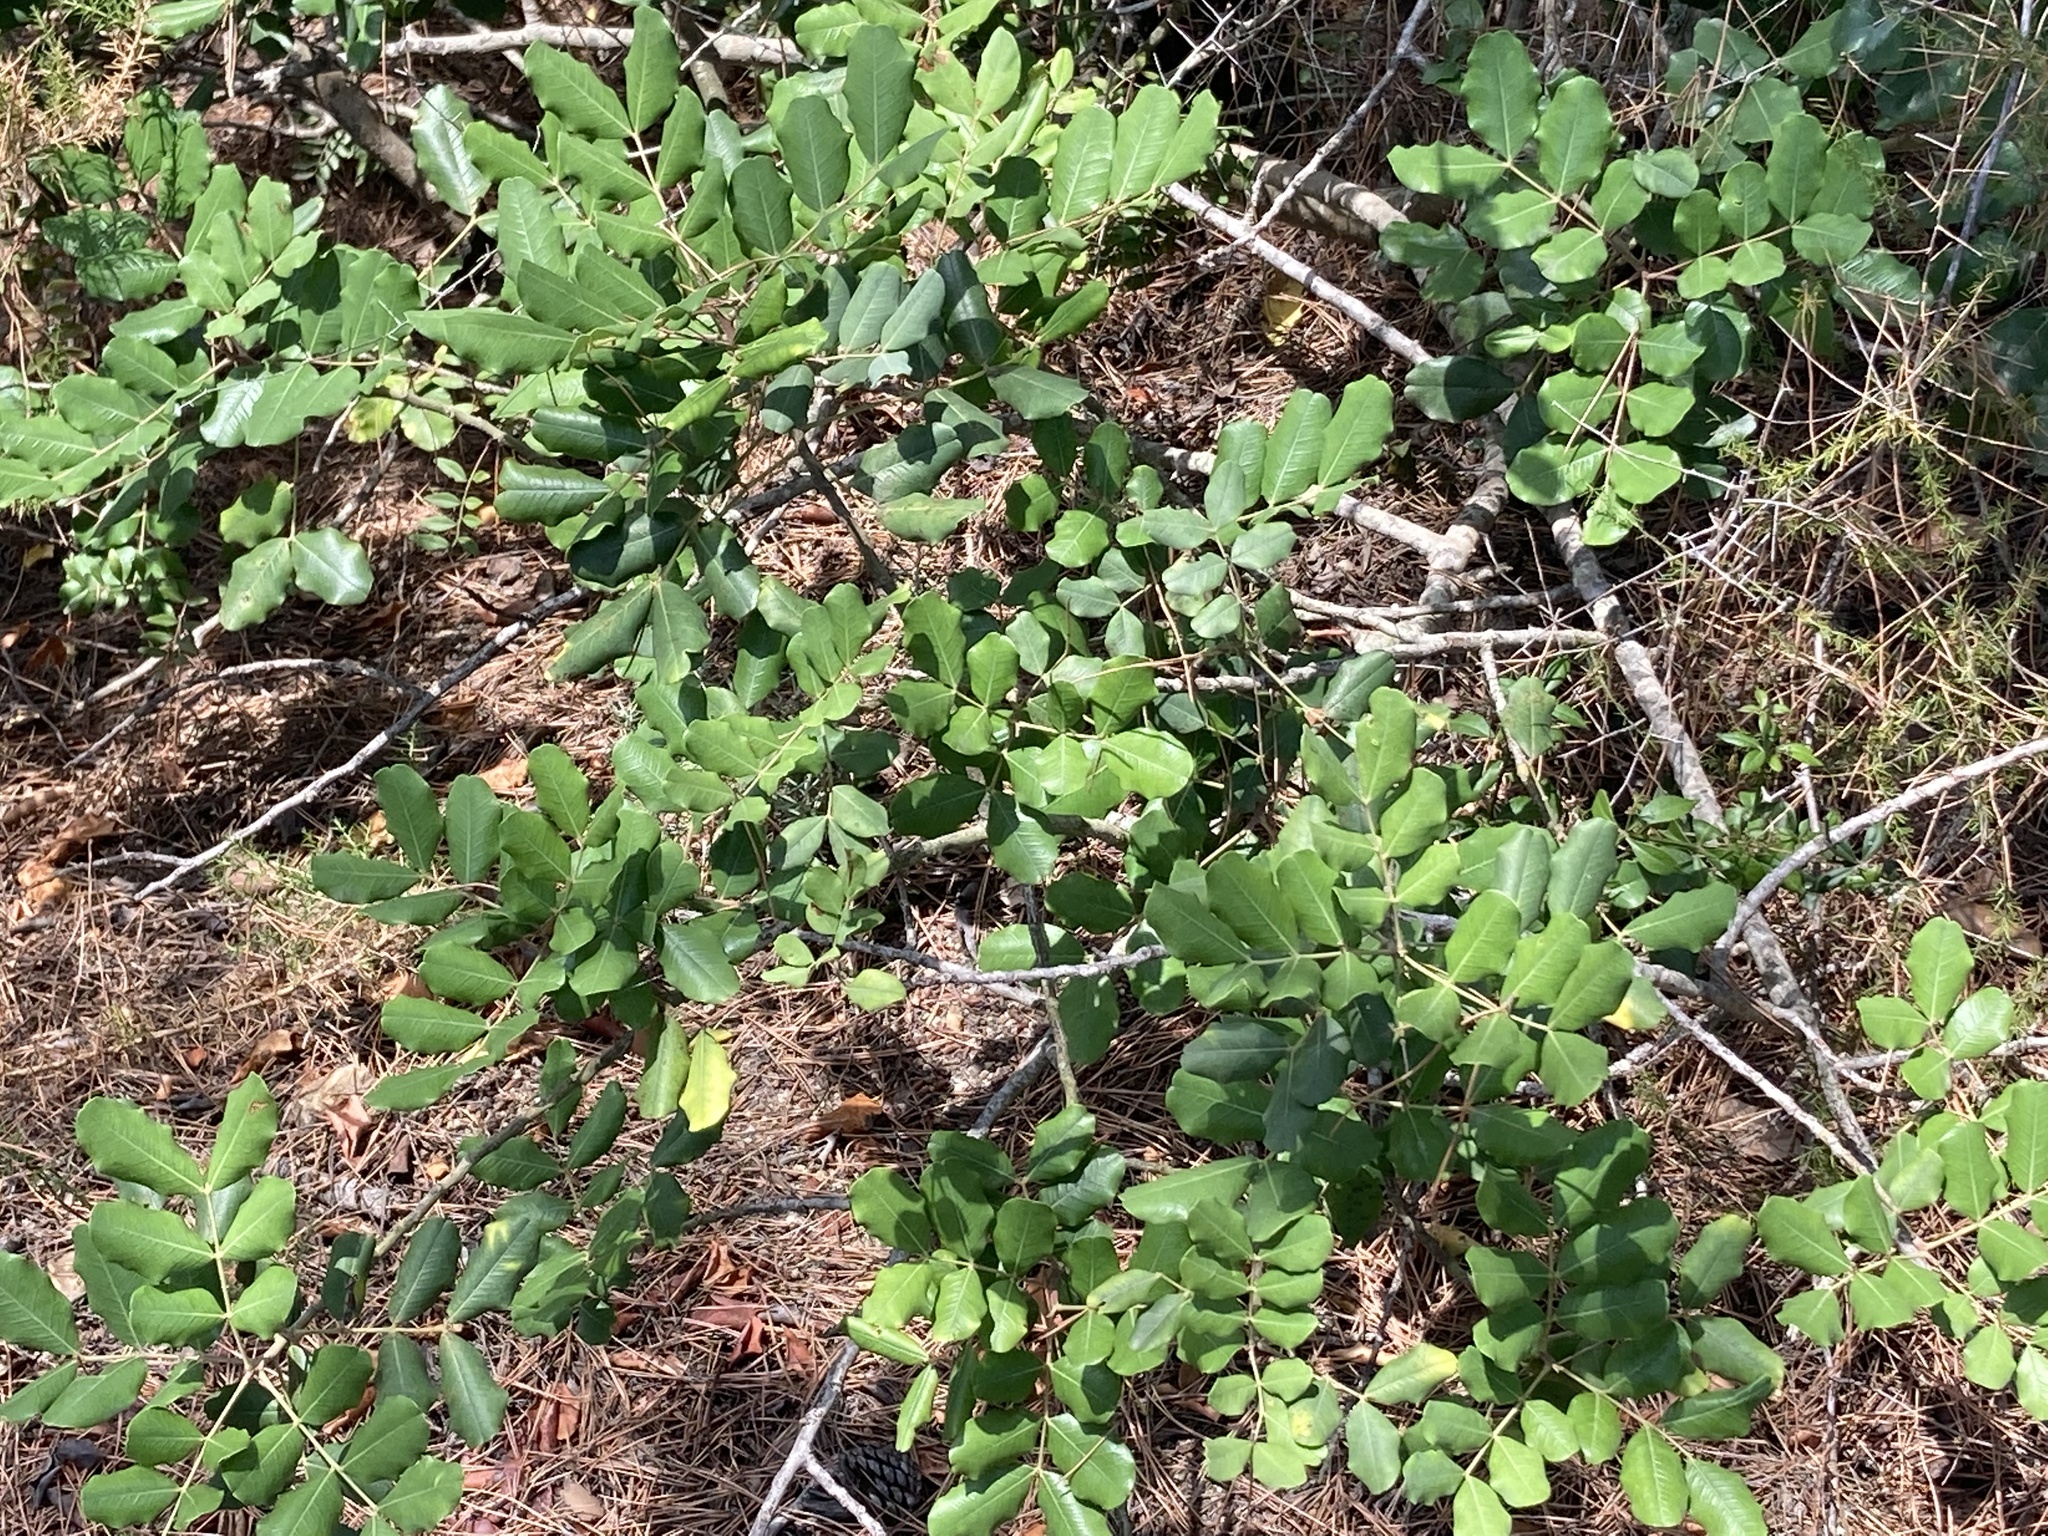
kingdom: Plantae
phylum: Tracheophyta
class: Magnoliopsida
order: Fabales
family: Fabaceae
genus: Ceratonia
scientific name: Ceratonia siliqua
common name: Carob
